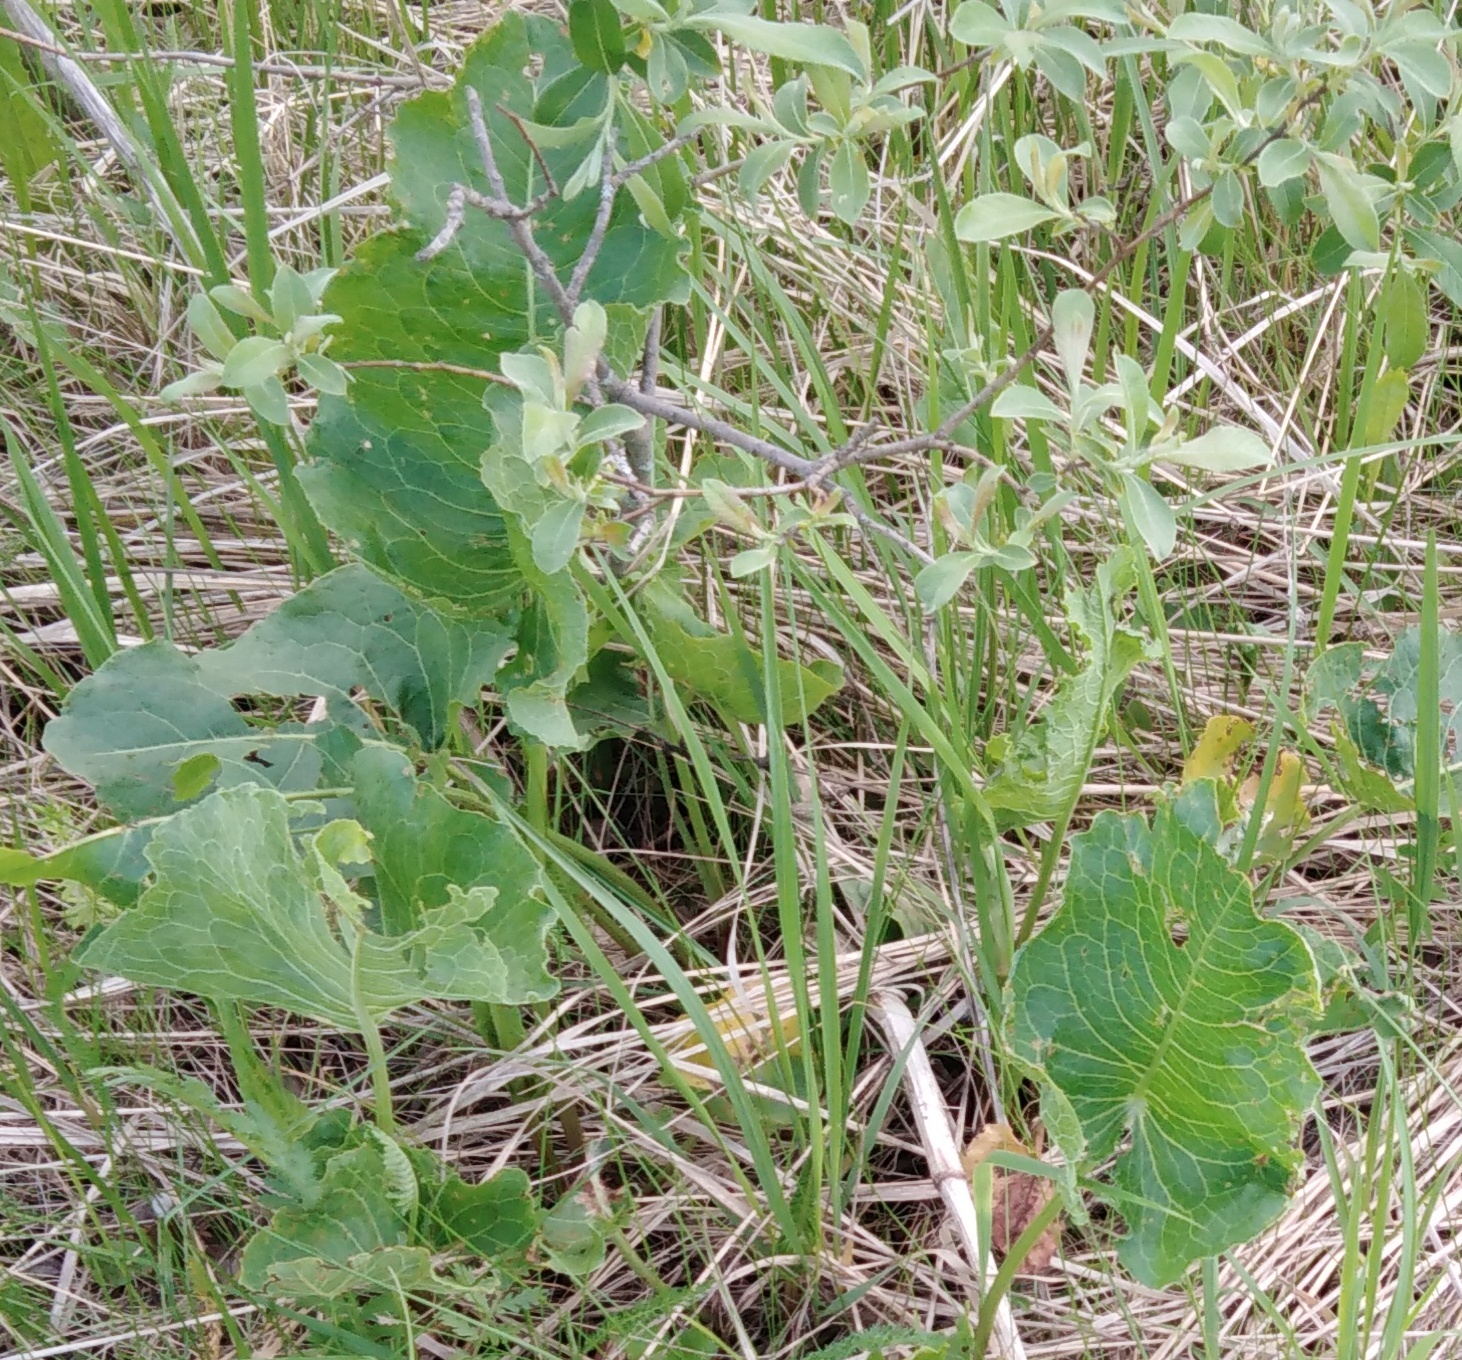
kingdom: Plantae
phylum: Tracheophyta
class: Magnoliopsida
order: Caryophyllales
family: Polygonaceae
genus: Rumex
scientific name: Rumex confertus
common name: Russian dock
